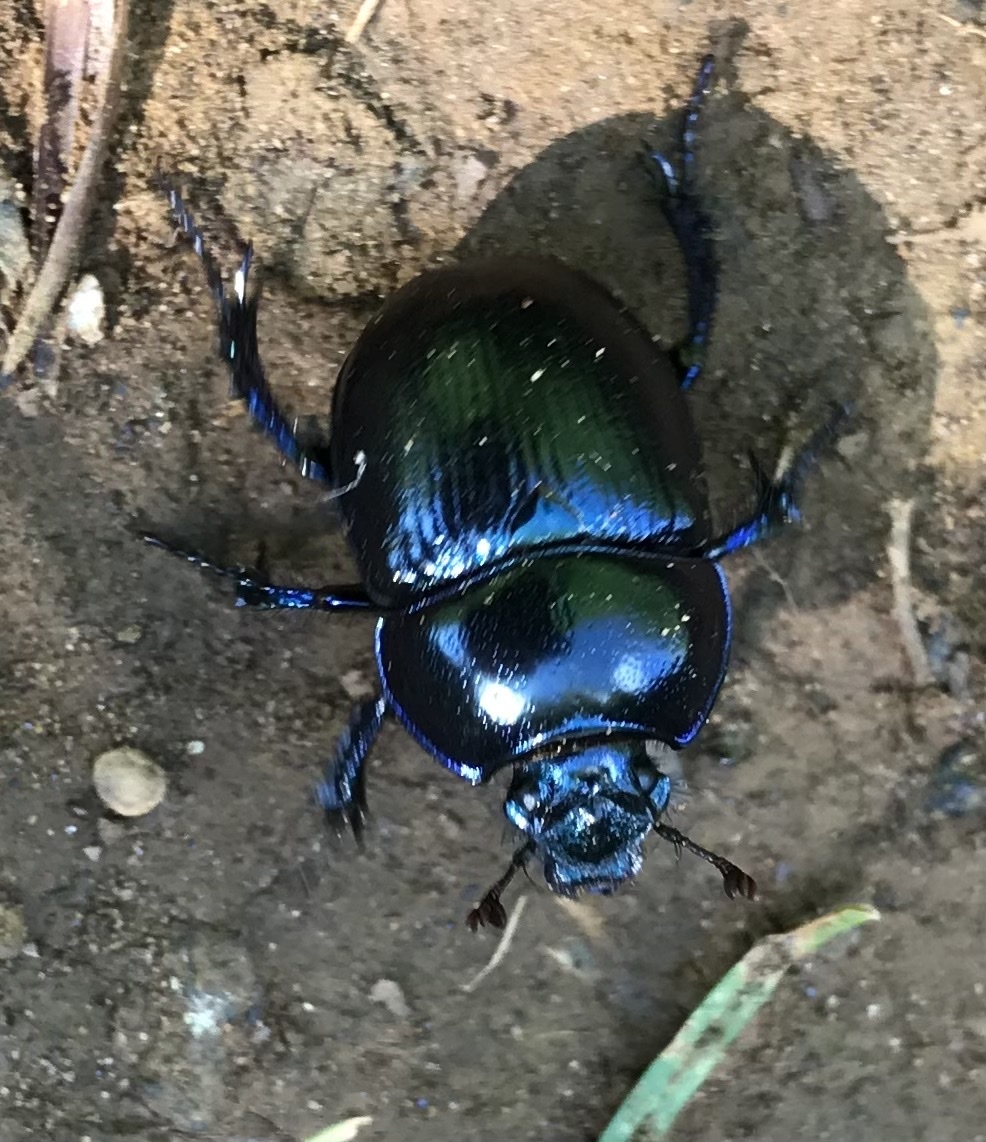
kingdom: Animalia
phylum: Arthropoda
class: Insecta
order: Coleoptera
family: Geotrupidae
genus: Anoplotrupes
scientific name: Anoplotrupes stercorosus
